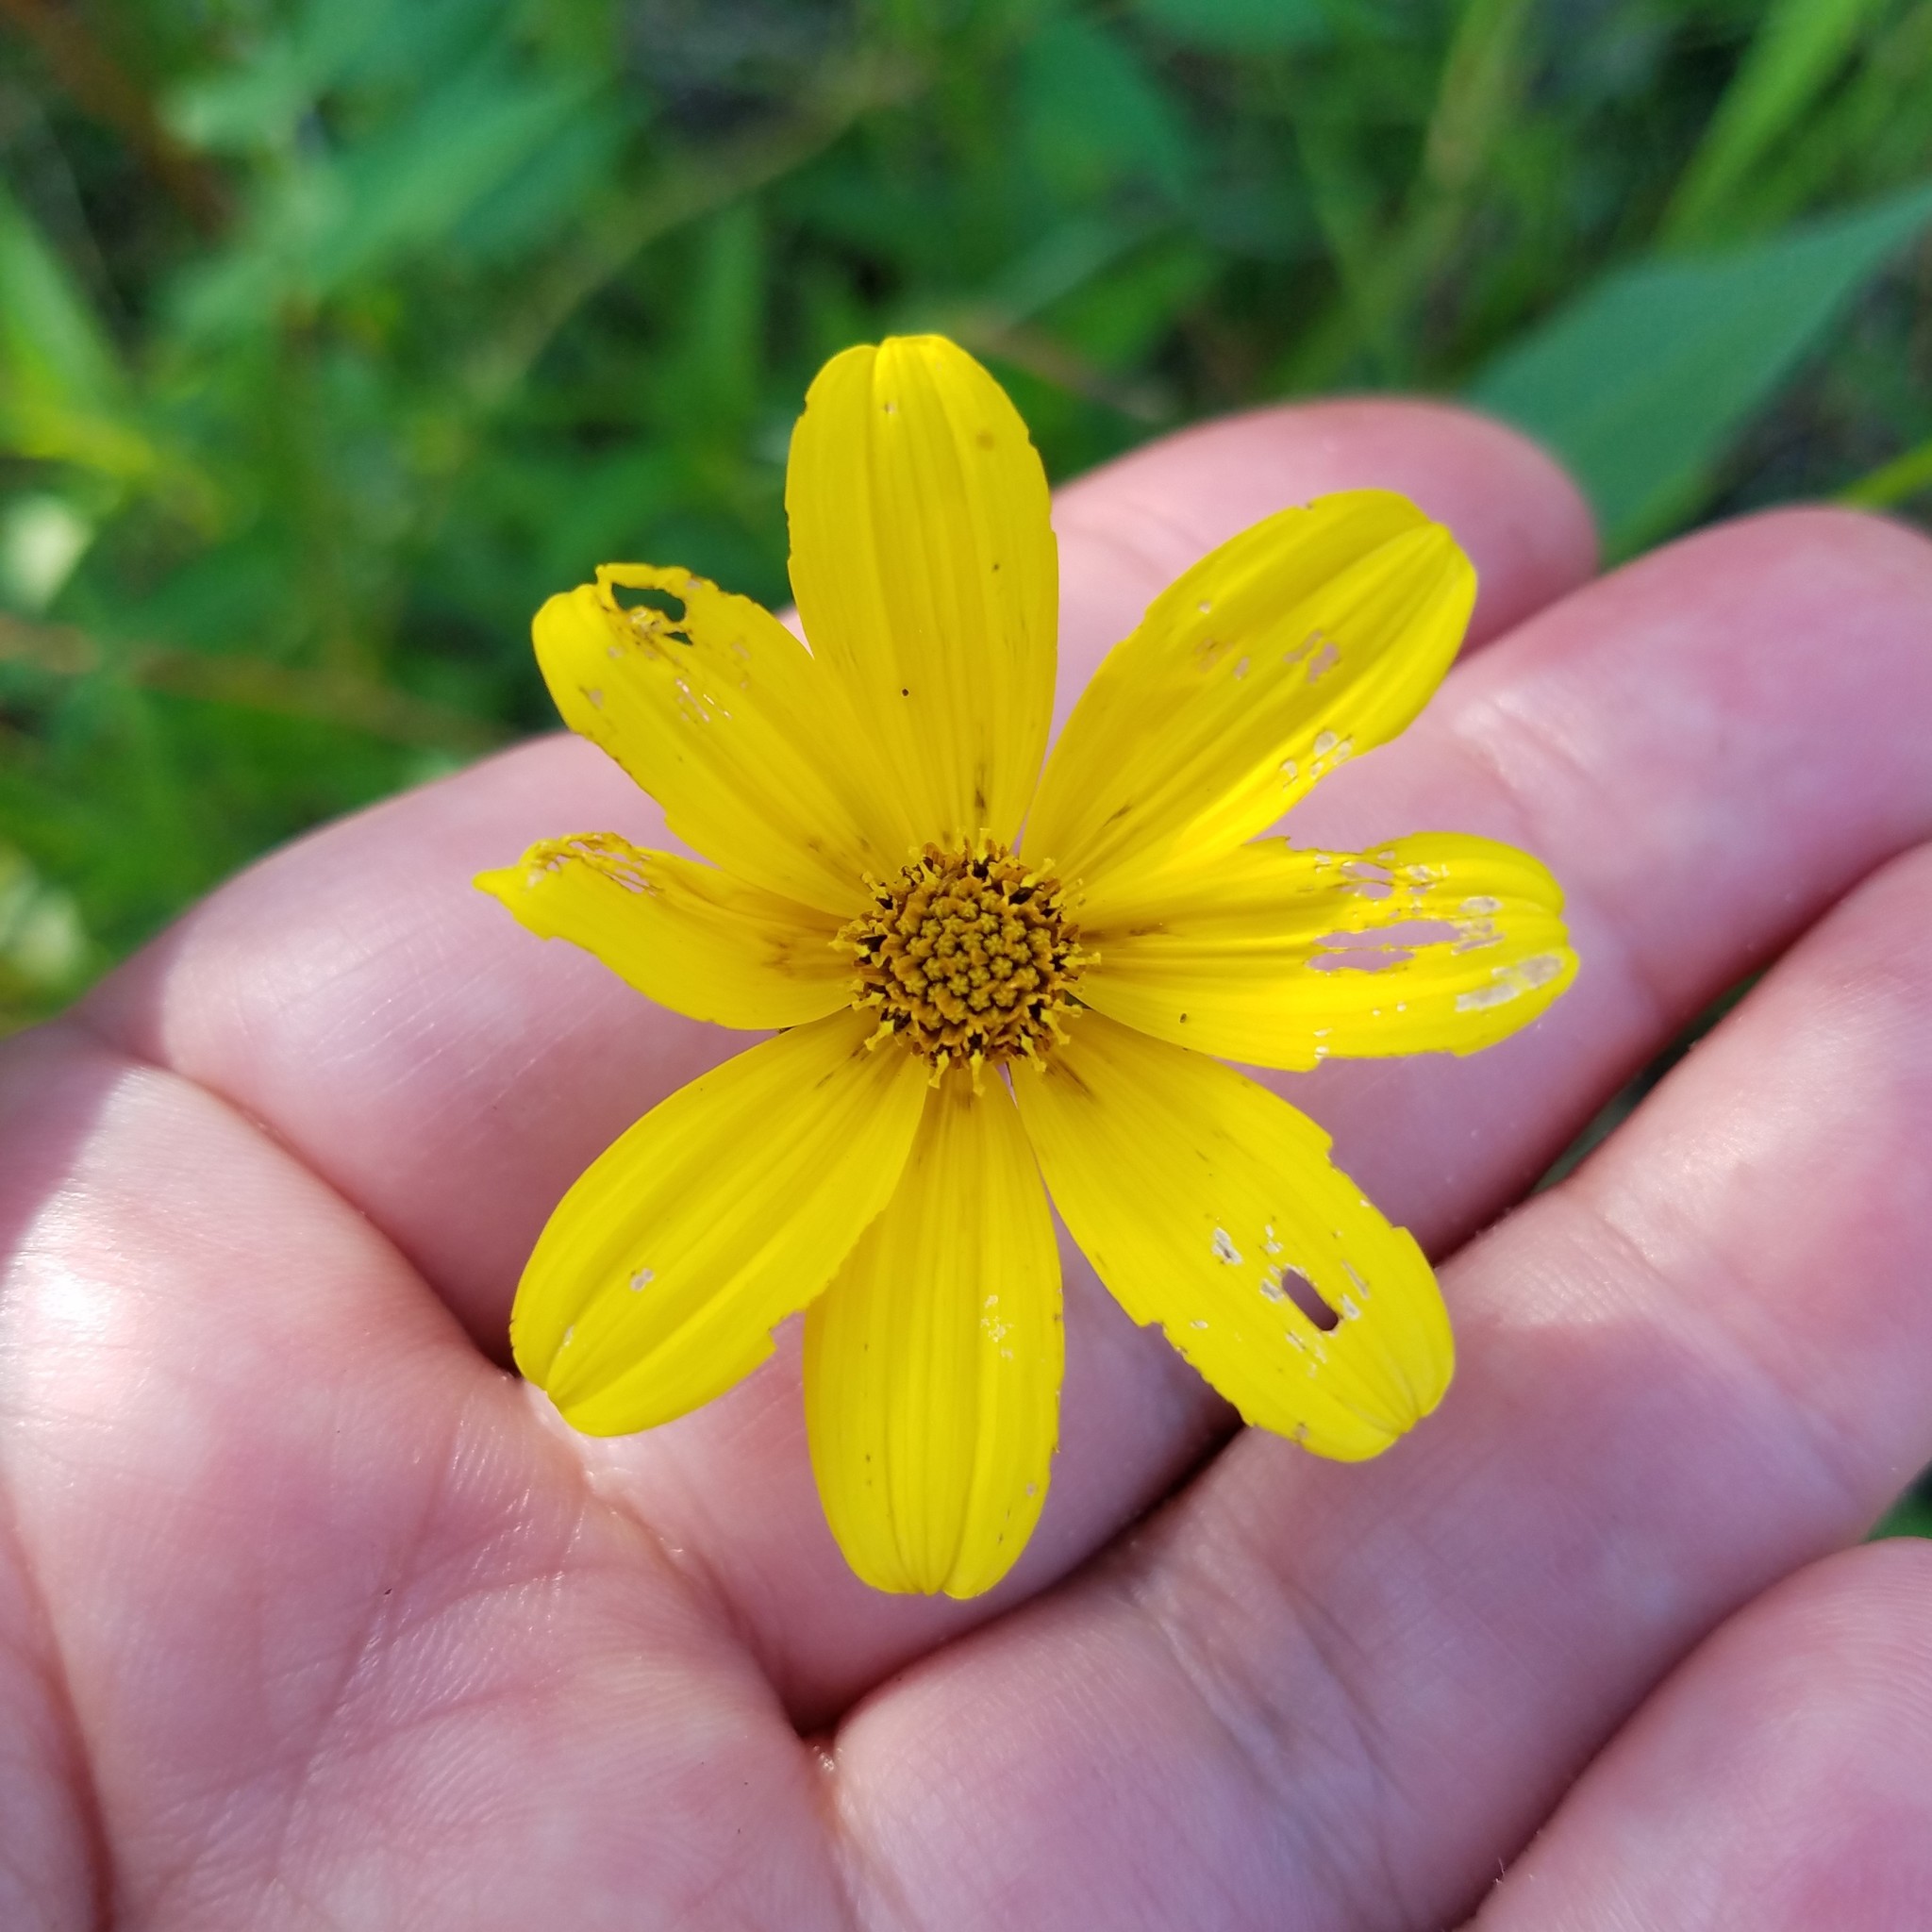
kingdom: Plantae
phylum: Tracheophyta
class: Magnoliopsida
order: Asterales
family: Asteraceae
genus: Bidens
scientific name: Bidens mitis
